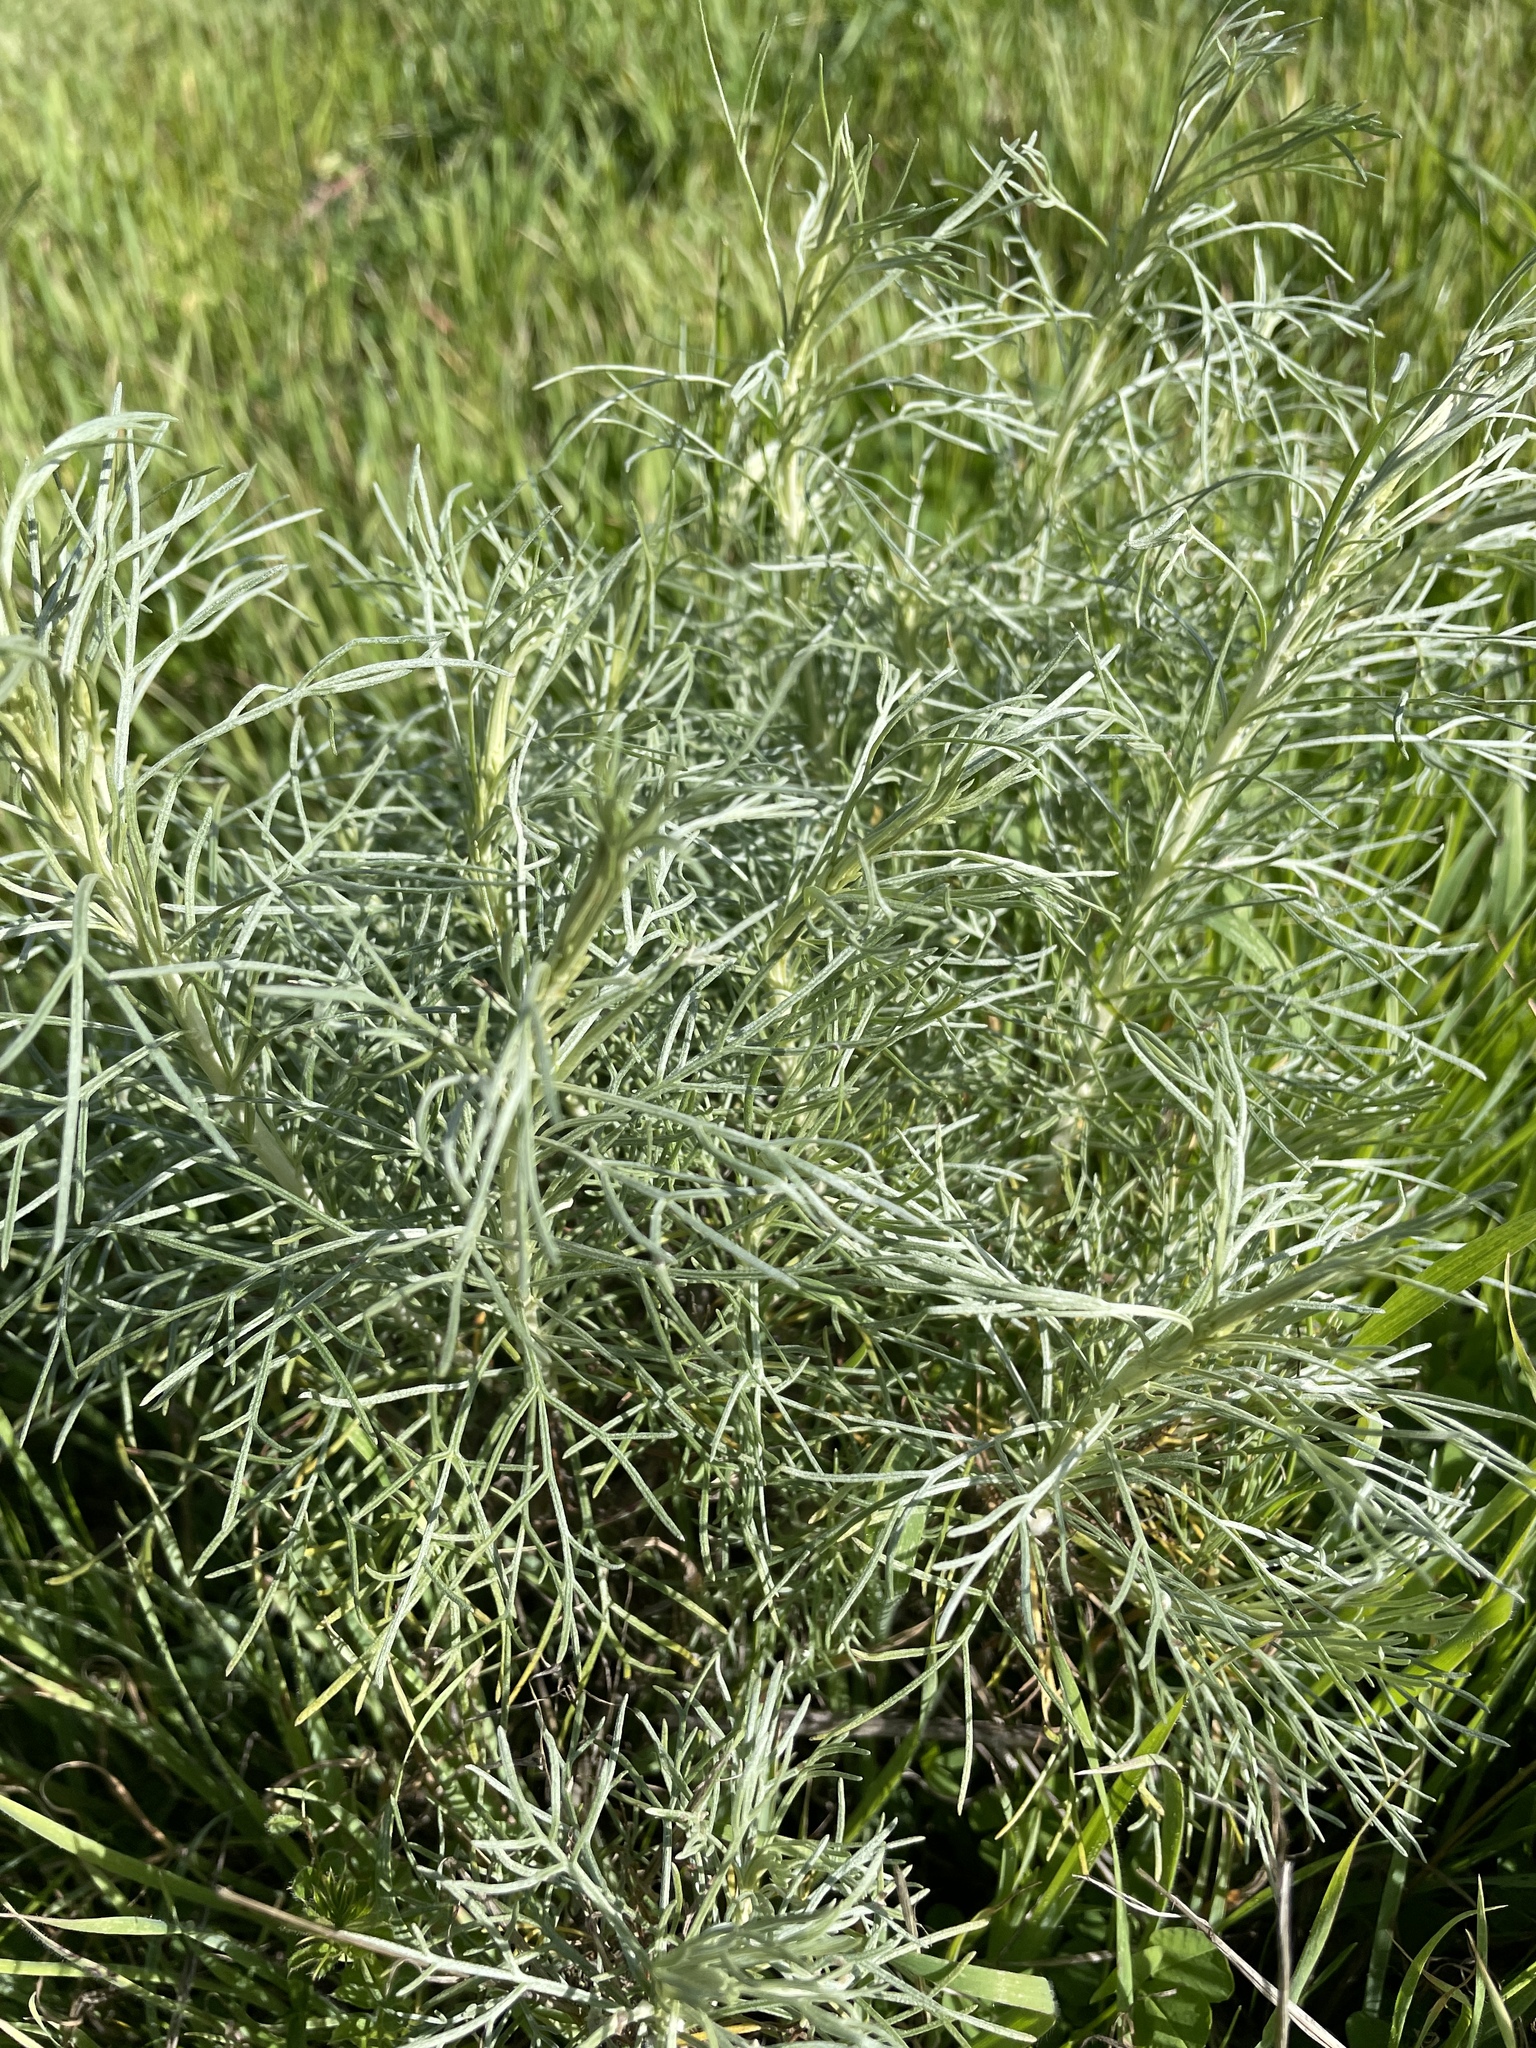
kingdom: Plantae
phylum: Tracheophyta
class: Magnoliopsida
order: Asterales
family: Asteraceae
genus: Artemisia
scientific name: Artemisia californica
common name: California sagebrush
